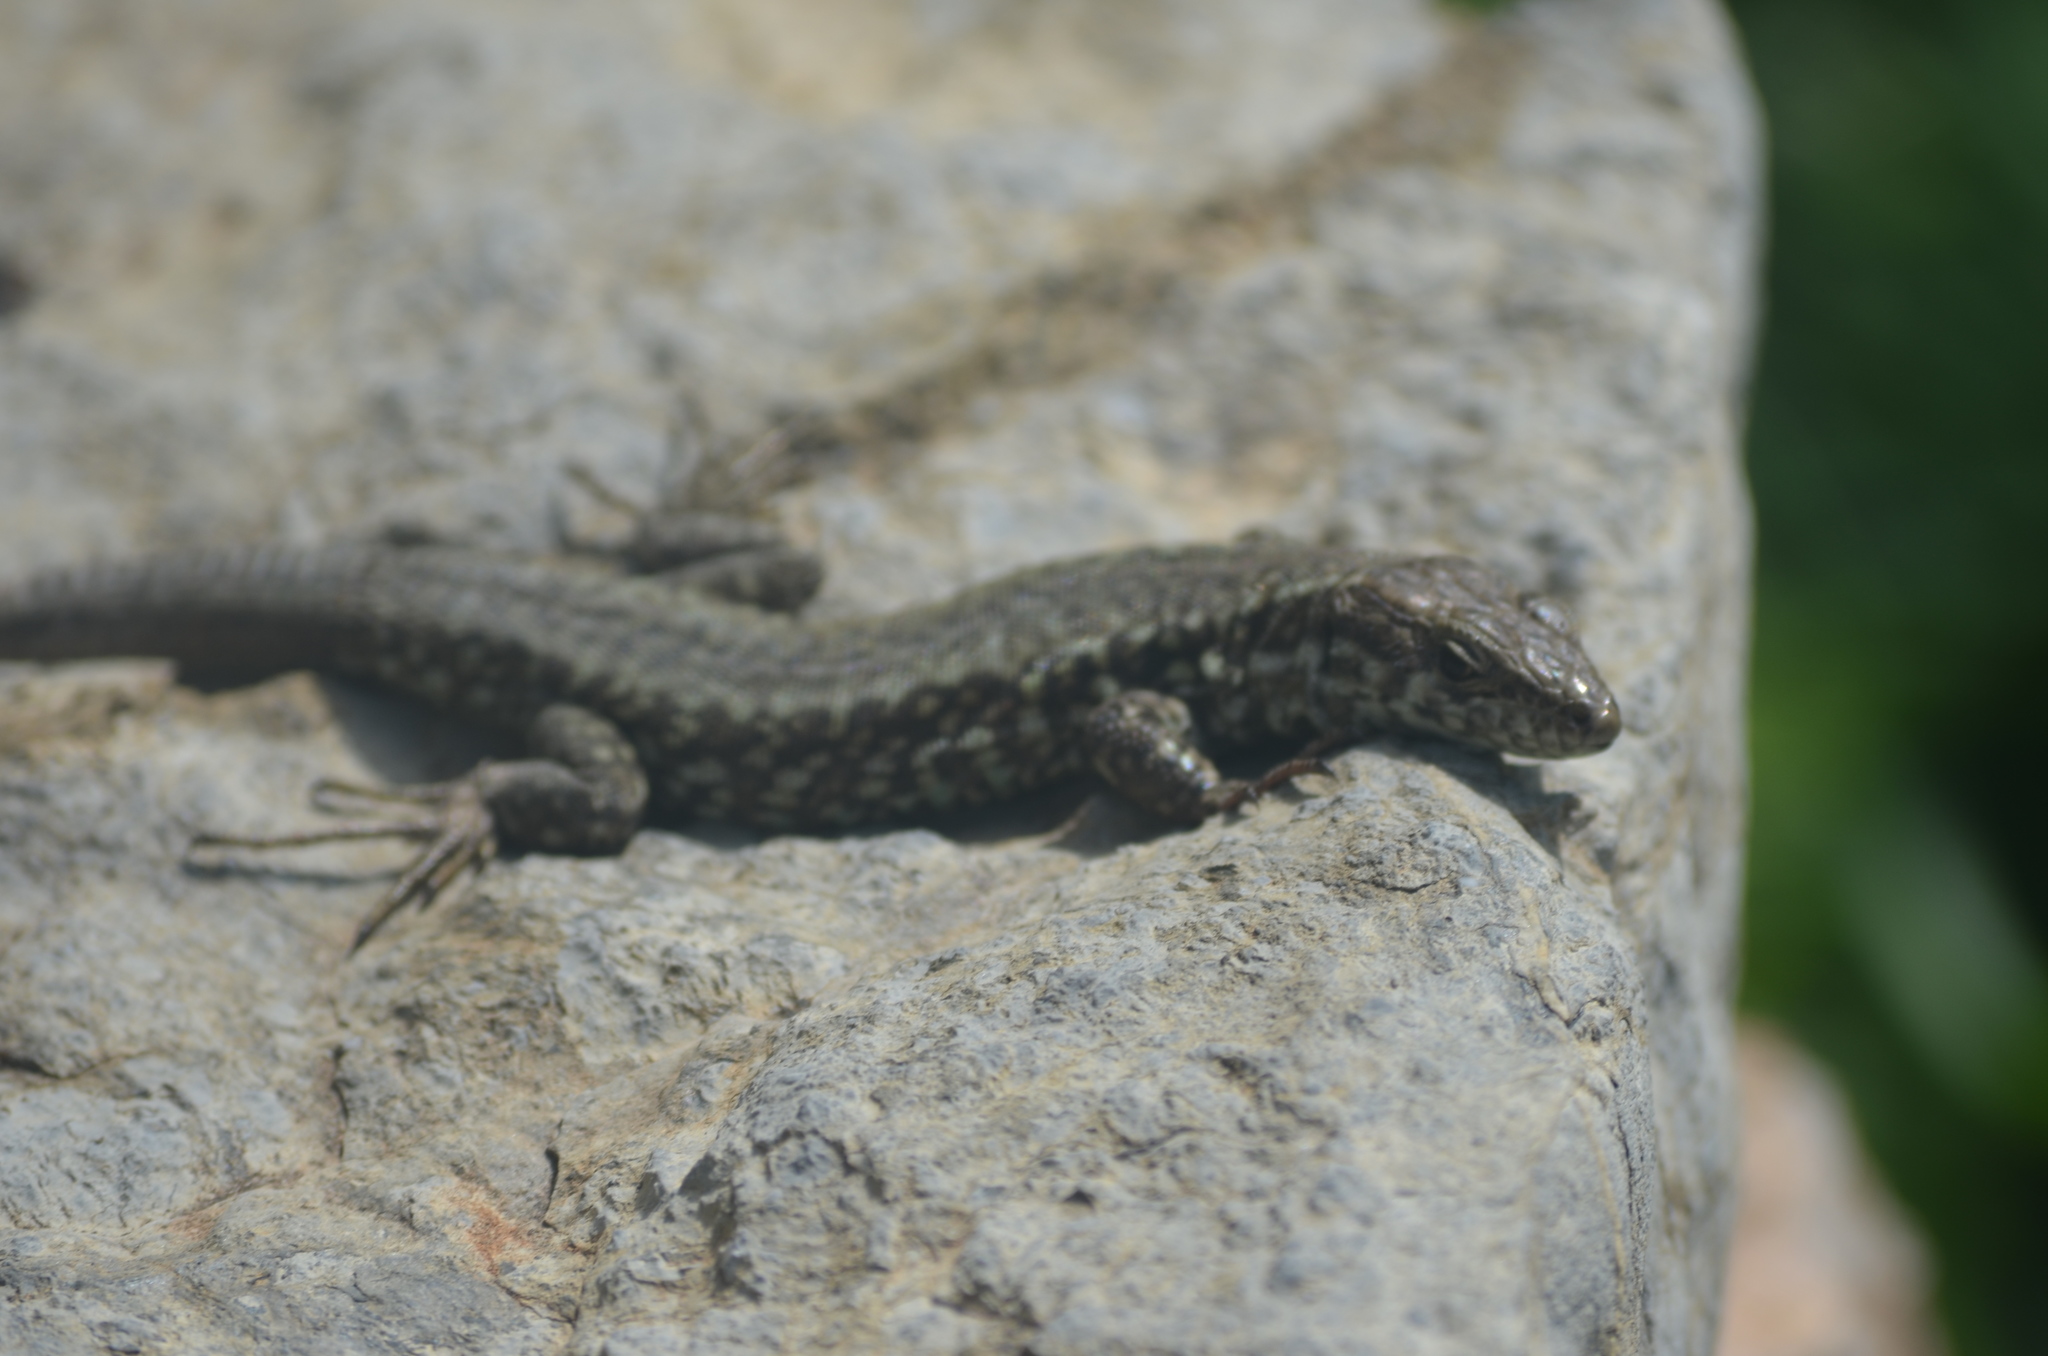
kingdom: Animalia
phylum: Chordata
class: Squamata
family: Lacertidae
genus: Podarcis
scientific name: Podarcis muralis
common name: Common wall lizard
